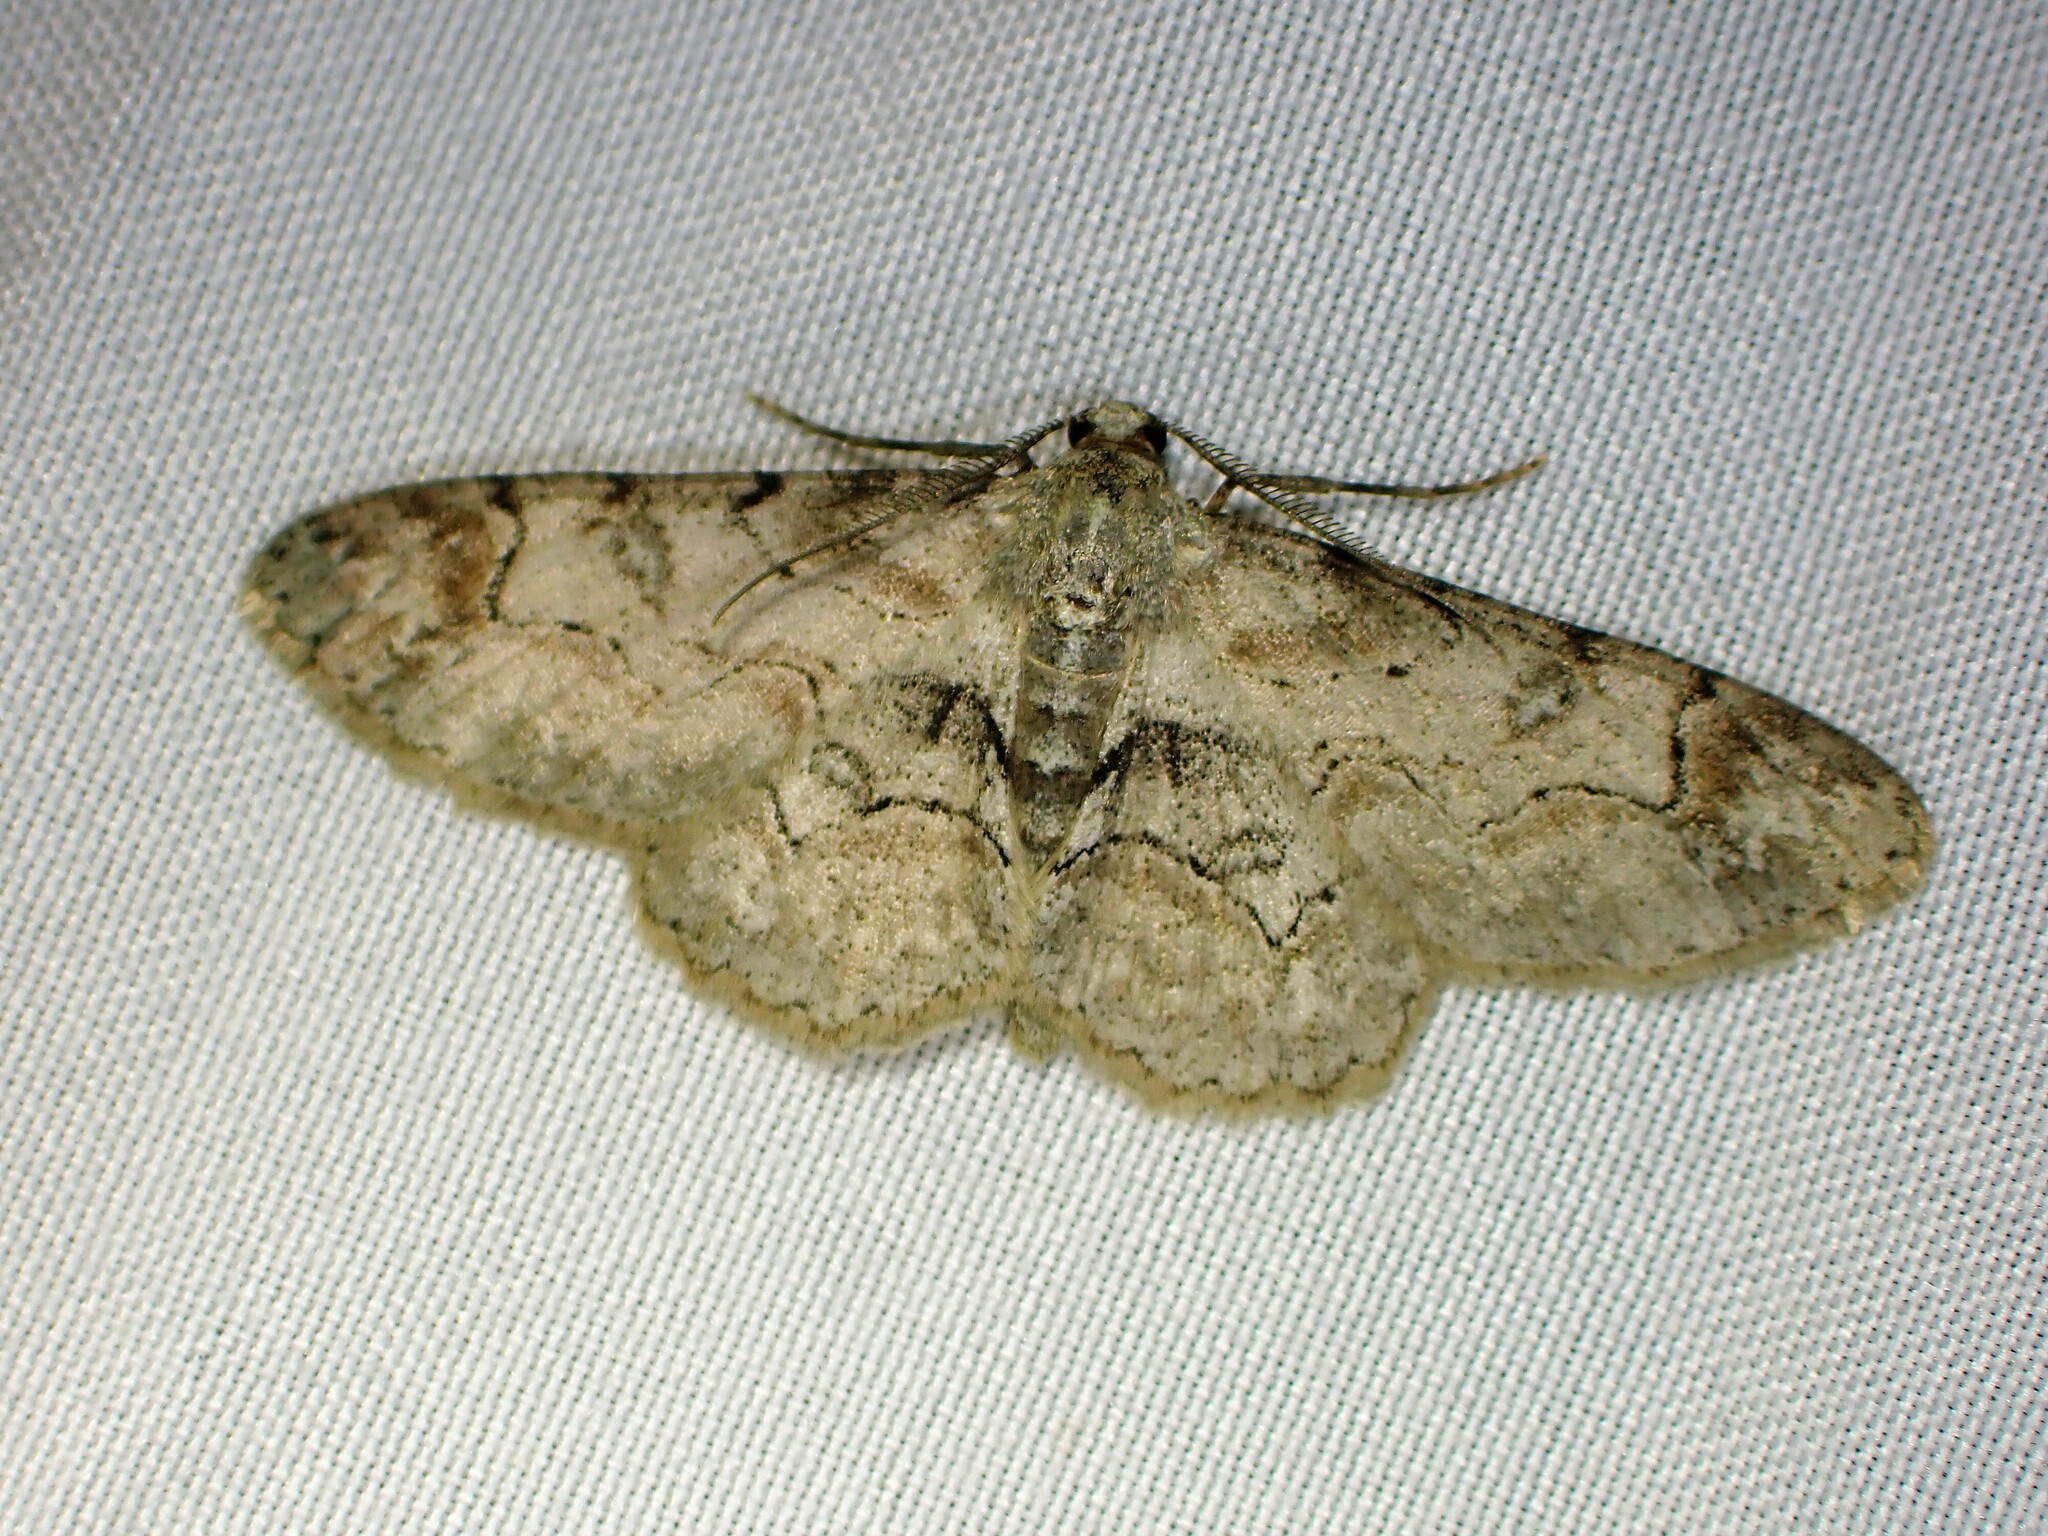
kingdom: Animalia
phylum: Arthropoda
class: Insecta
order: Lepidoptera
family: Geometridae
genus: Iridopsis
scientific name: Iridopsis larvaria
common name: Bent-line gray
